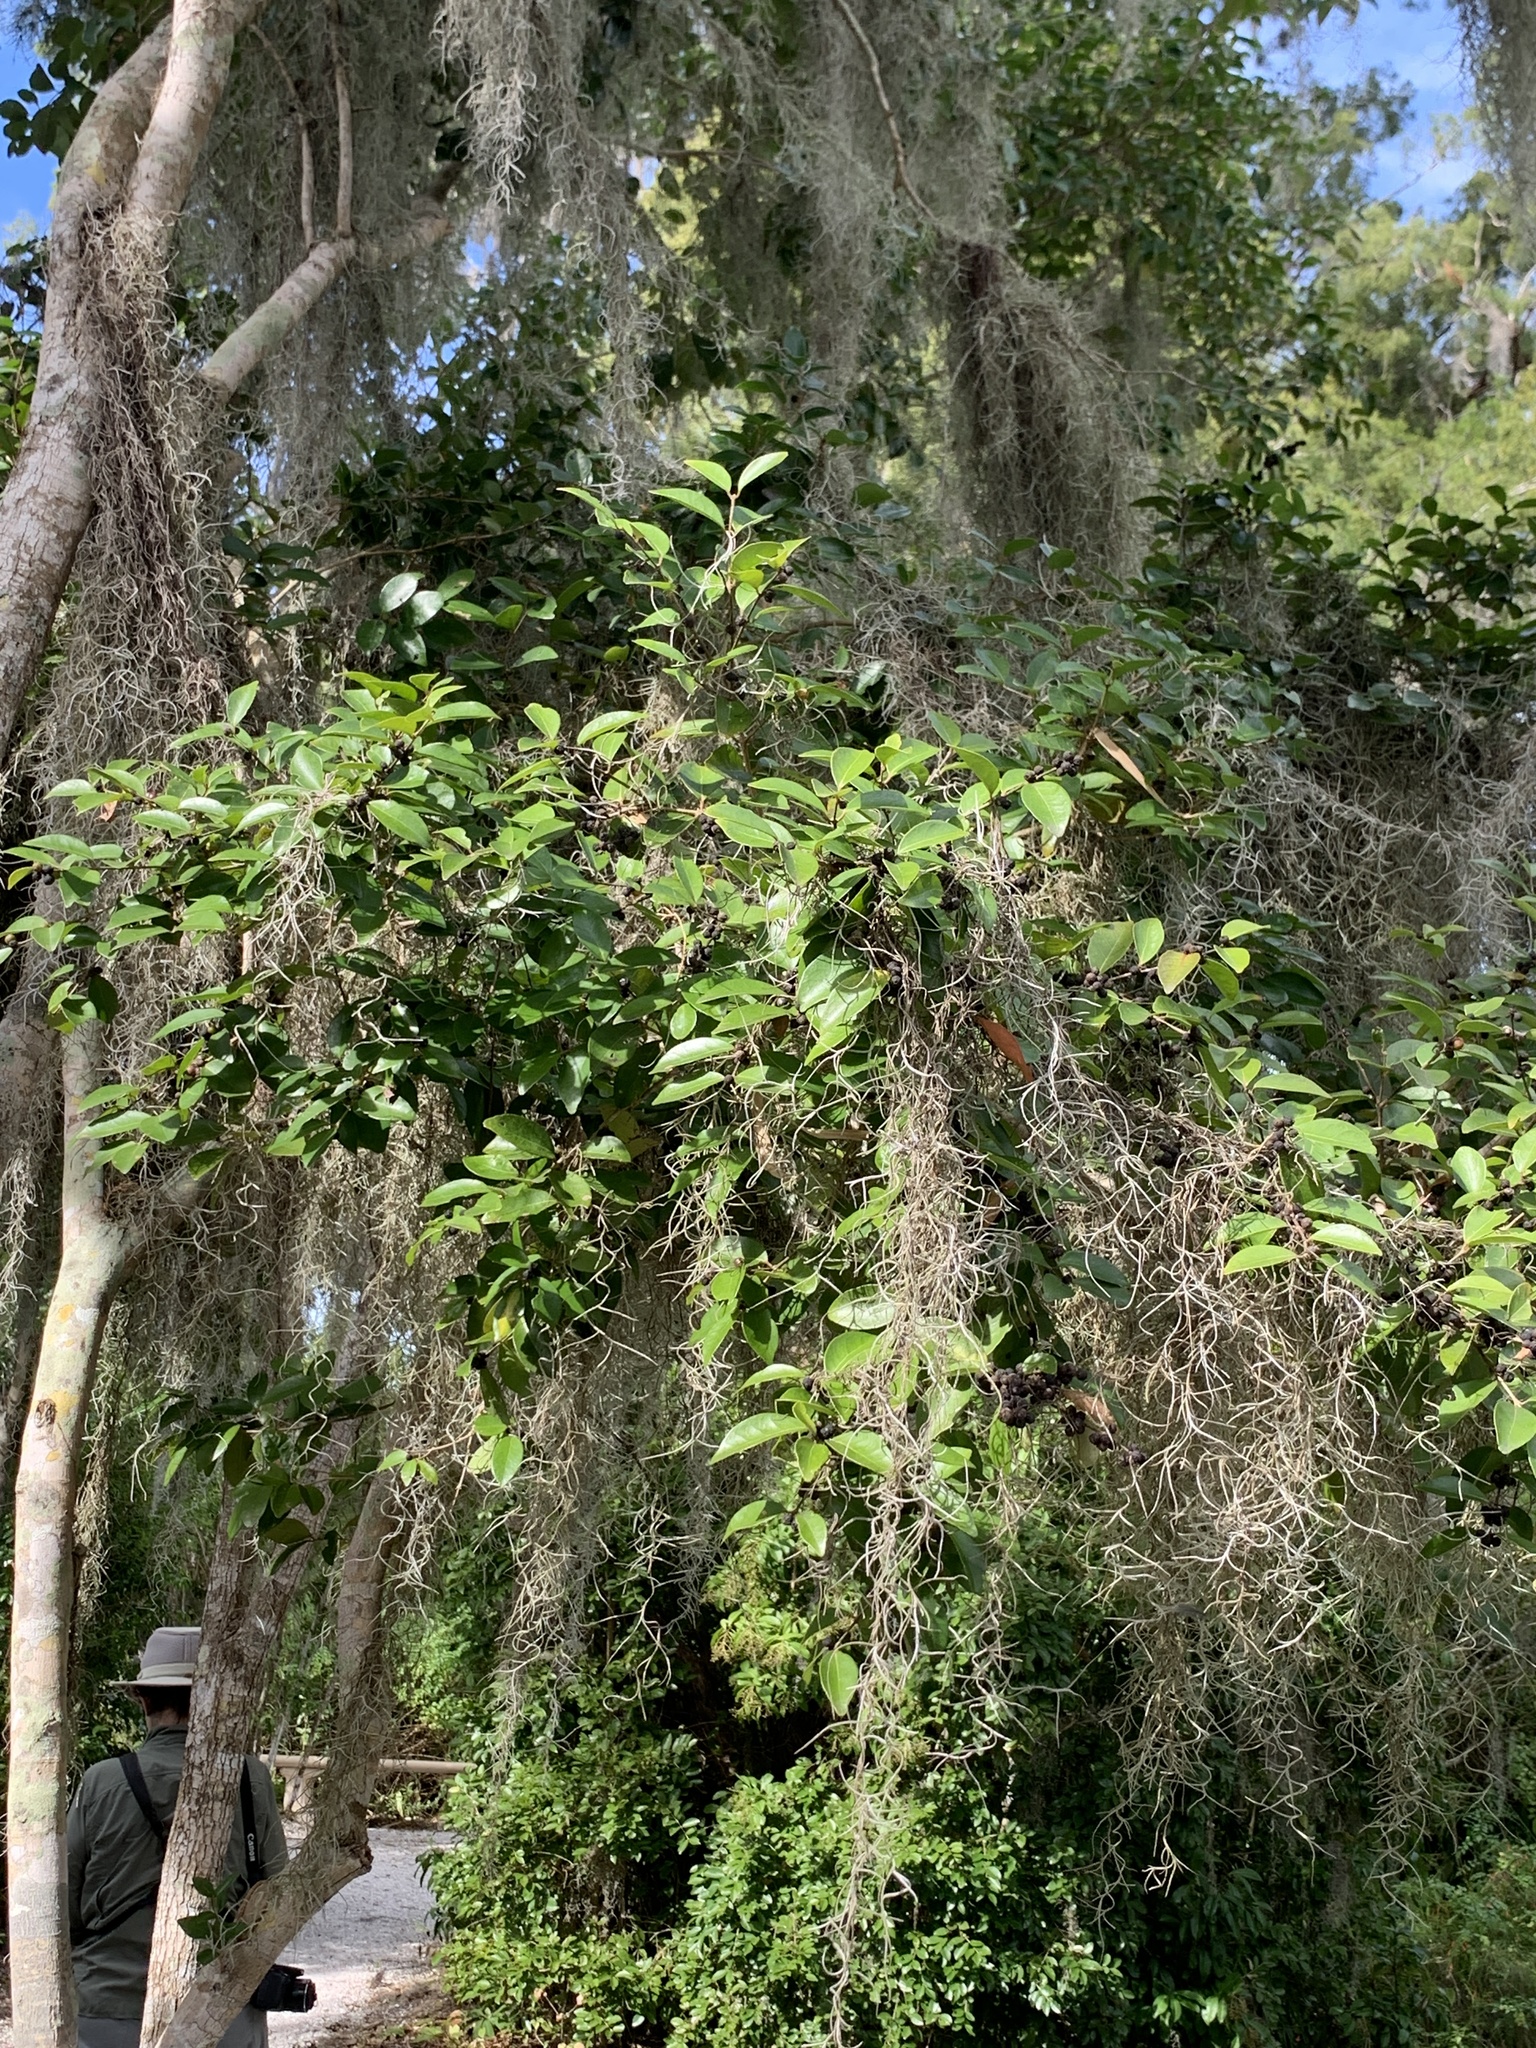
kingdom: Plantae
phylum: Tracheophyta
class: Magnoliopsida
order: Myrtales
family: Myrtaceae
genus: Eugenia
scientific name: Eugenia axillaris
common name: Choaky berry
